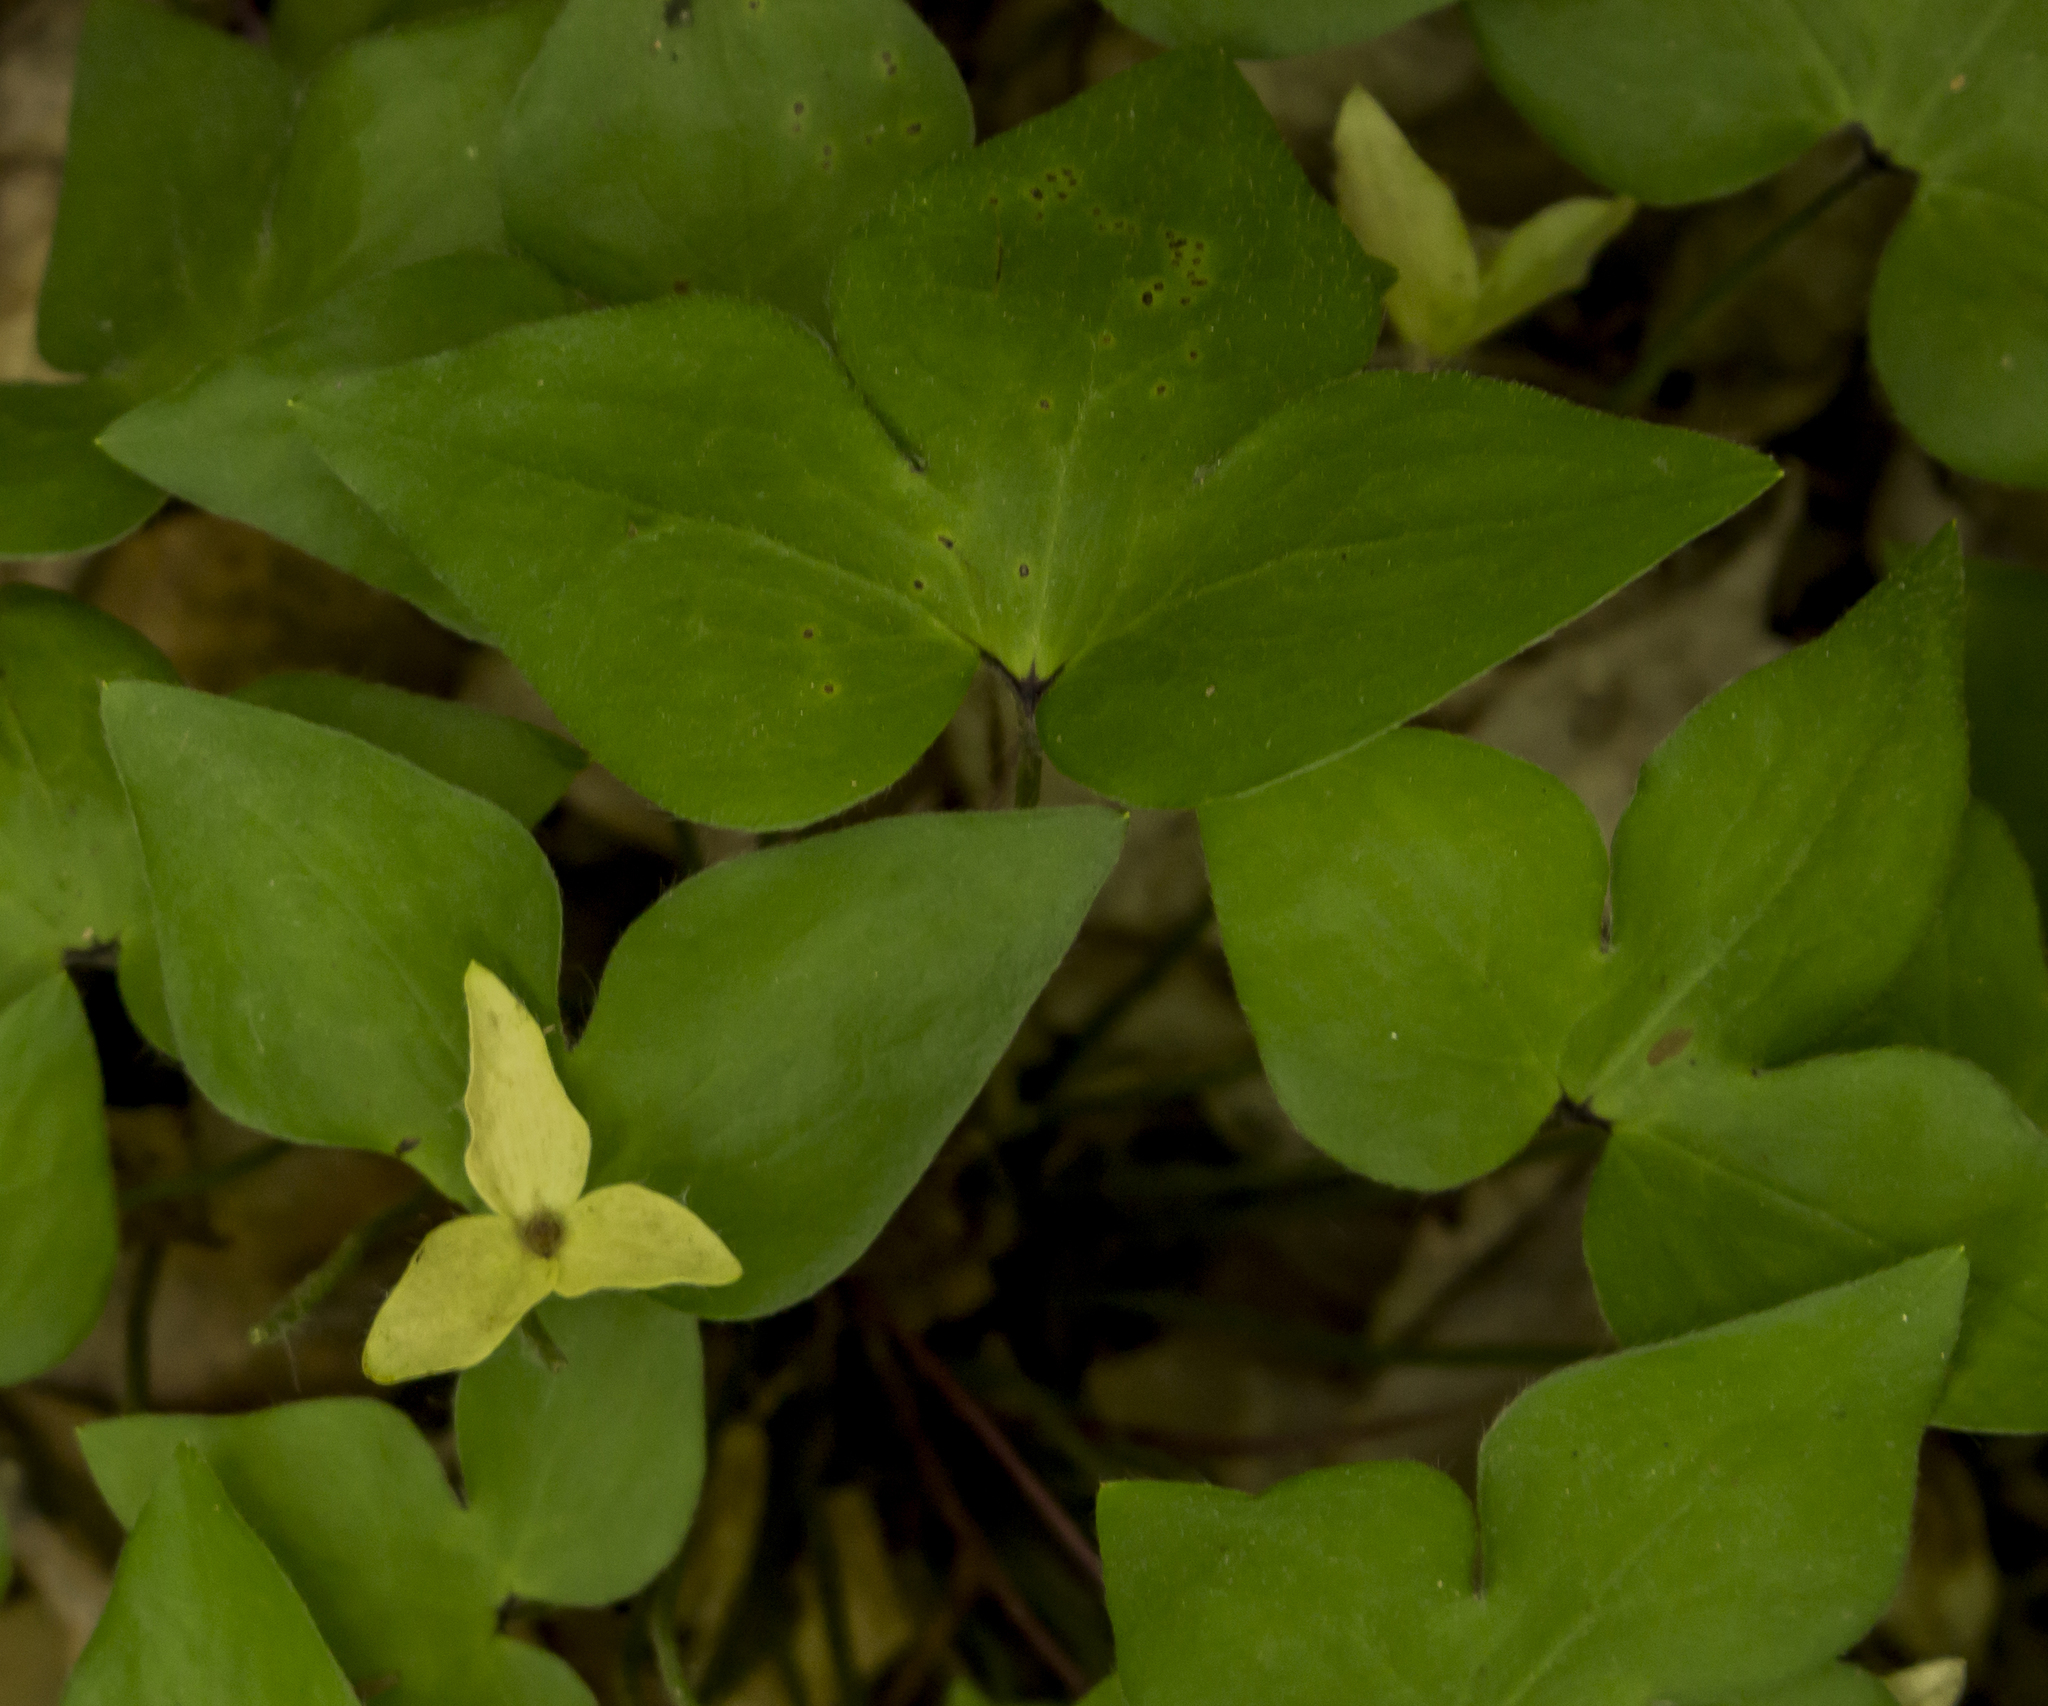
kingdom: Plantae
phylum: Tracheophyta
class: Magnoliopsida
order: Ranunculales
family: Ranunculaceae
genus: Hepatica
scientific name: Hepatica acutiloba
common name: Sharp-lobed hepatica
